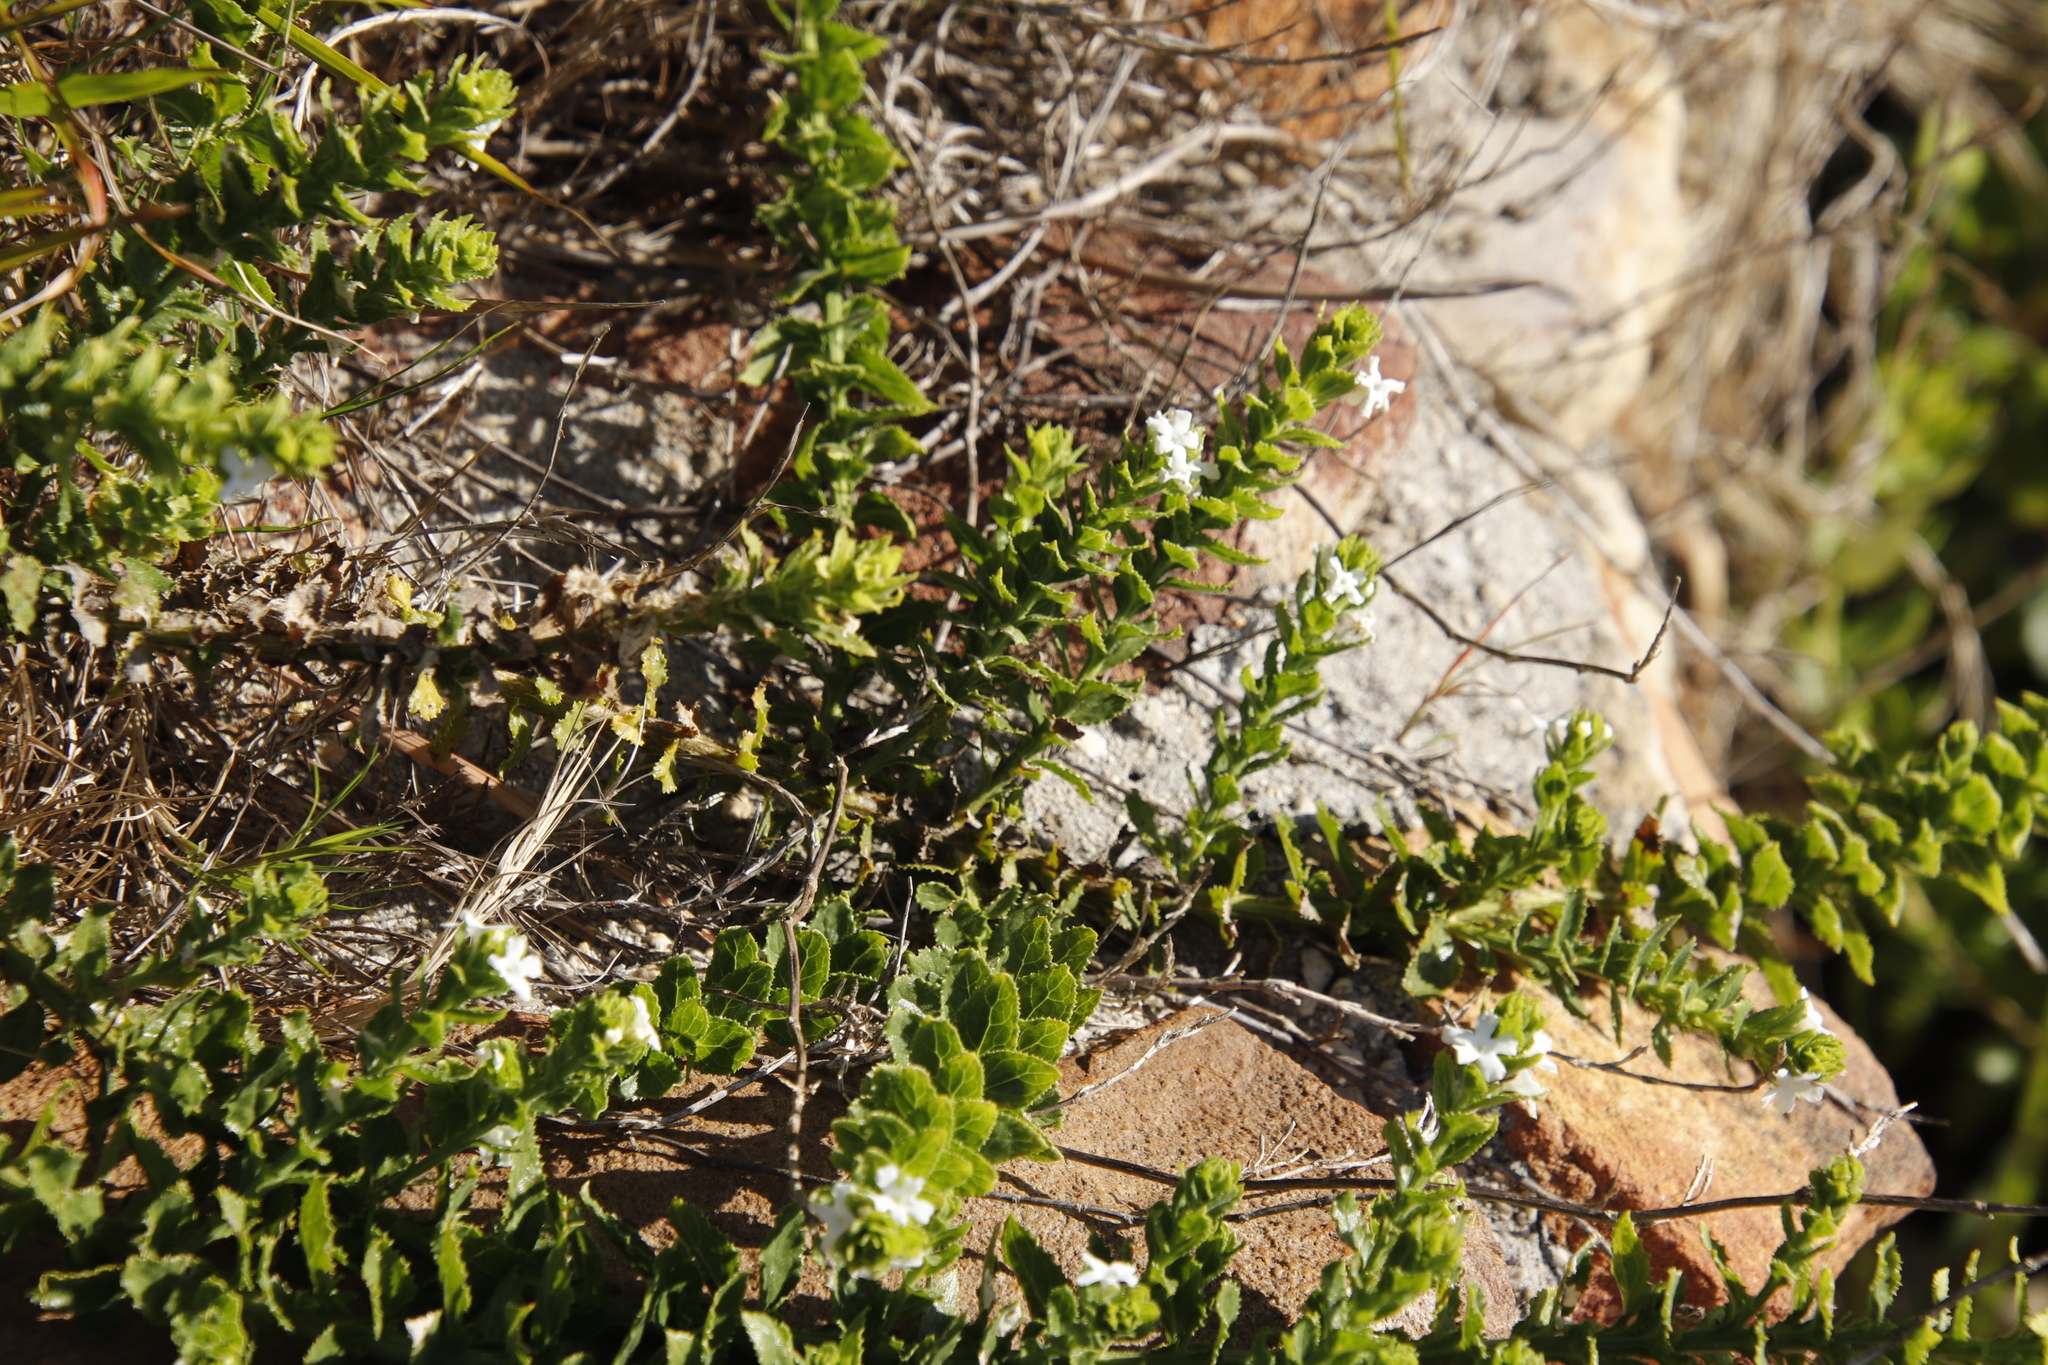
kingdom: Plantae
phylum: Tracheophyta
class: Magnoliopsida
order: Lamiales
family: Scrophulariaceae
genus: Oftia
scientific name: Oftia africana
